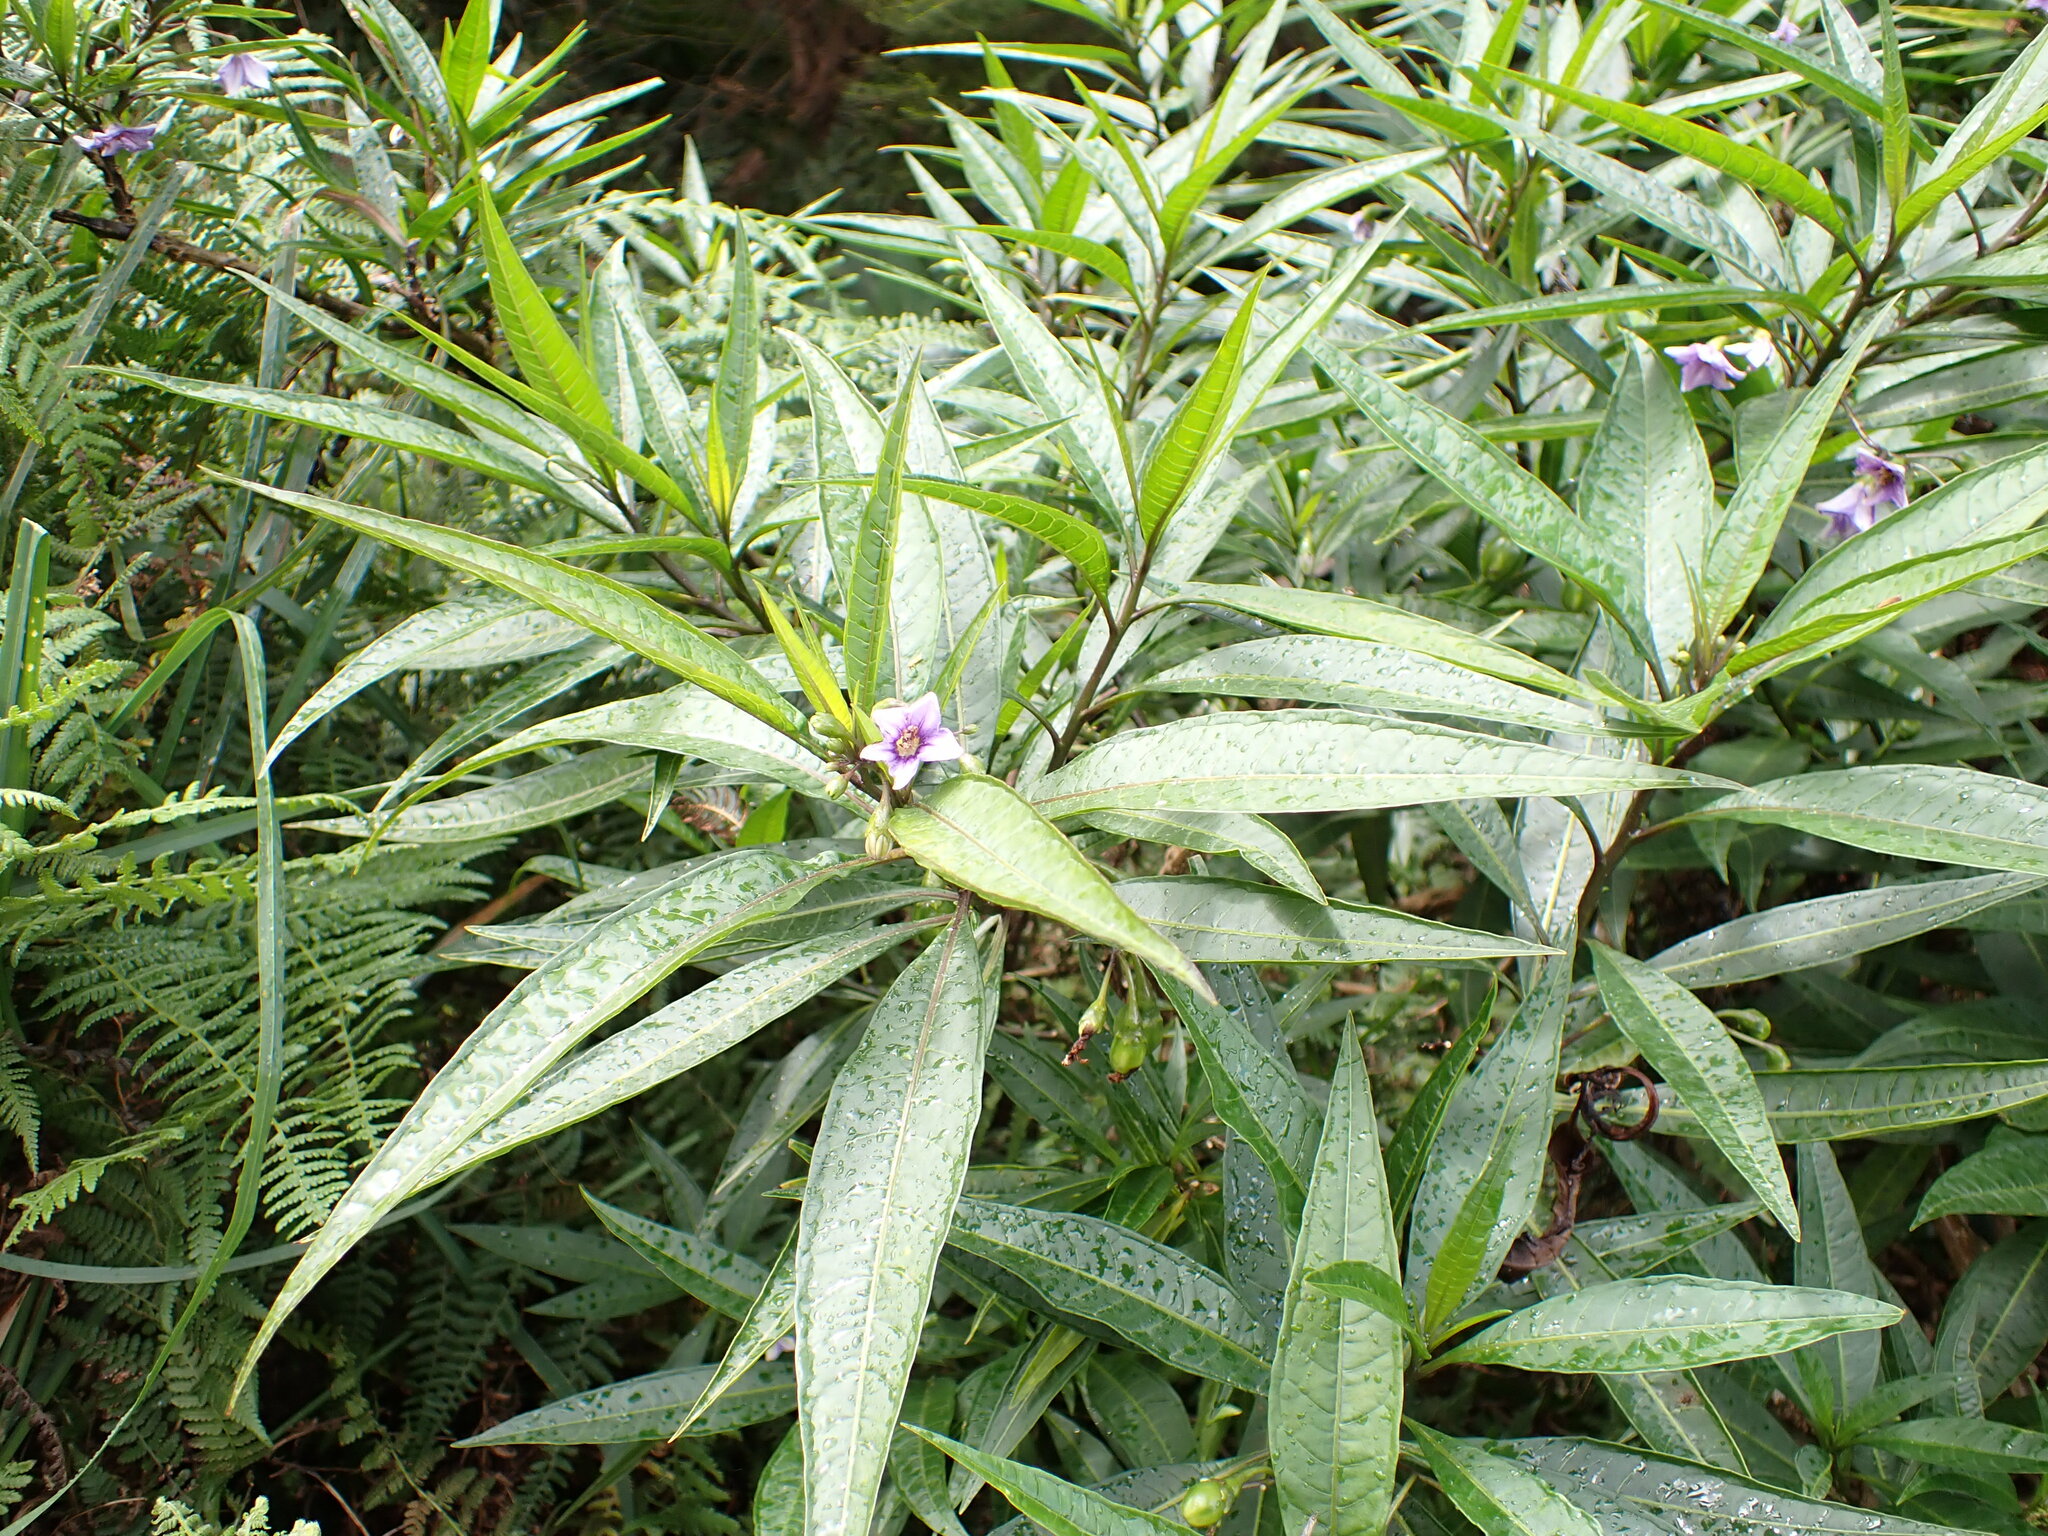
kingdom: Plantae
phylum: Tracheophyta
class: Magnoliopsida
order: Solanales
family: Solanaceae
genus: Solanum
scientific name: Solanum aviculare
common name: New zealand nightshade
